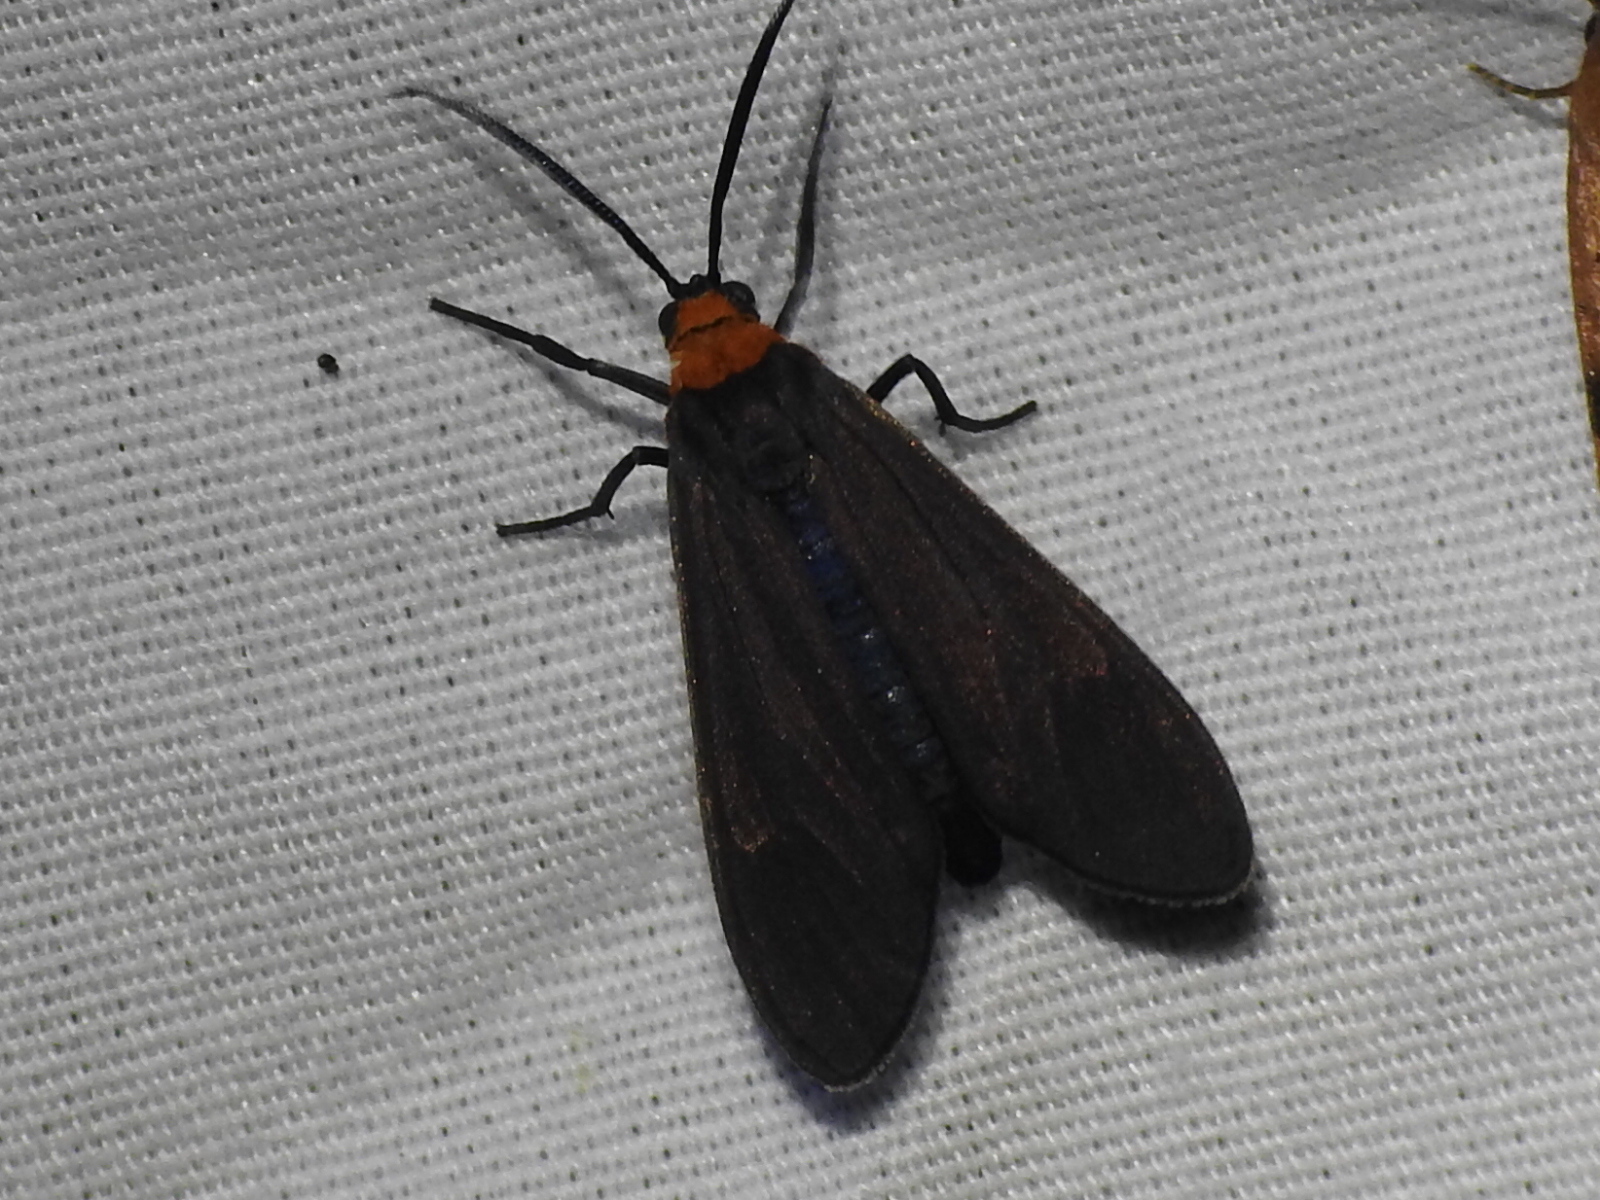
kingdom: Animalia
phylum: Arthropoda
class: Insecta
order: Lepidoptera
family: Erebidae
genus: Cisseps
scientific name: Cisseps fulvicollis
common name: Yellow-collared scape moth
